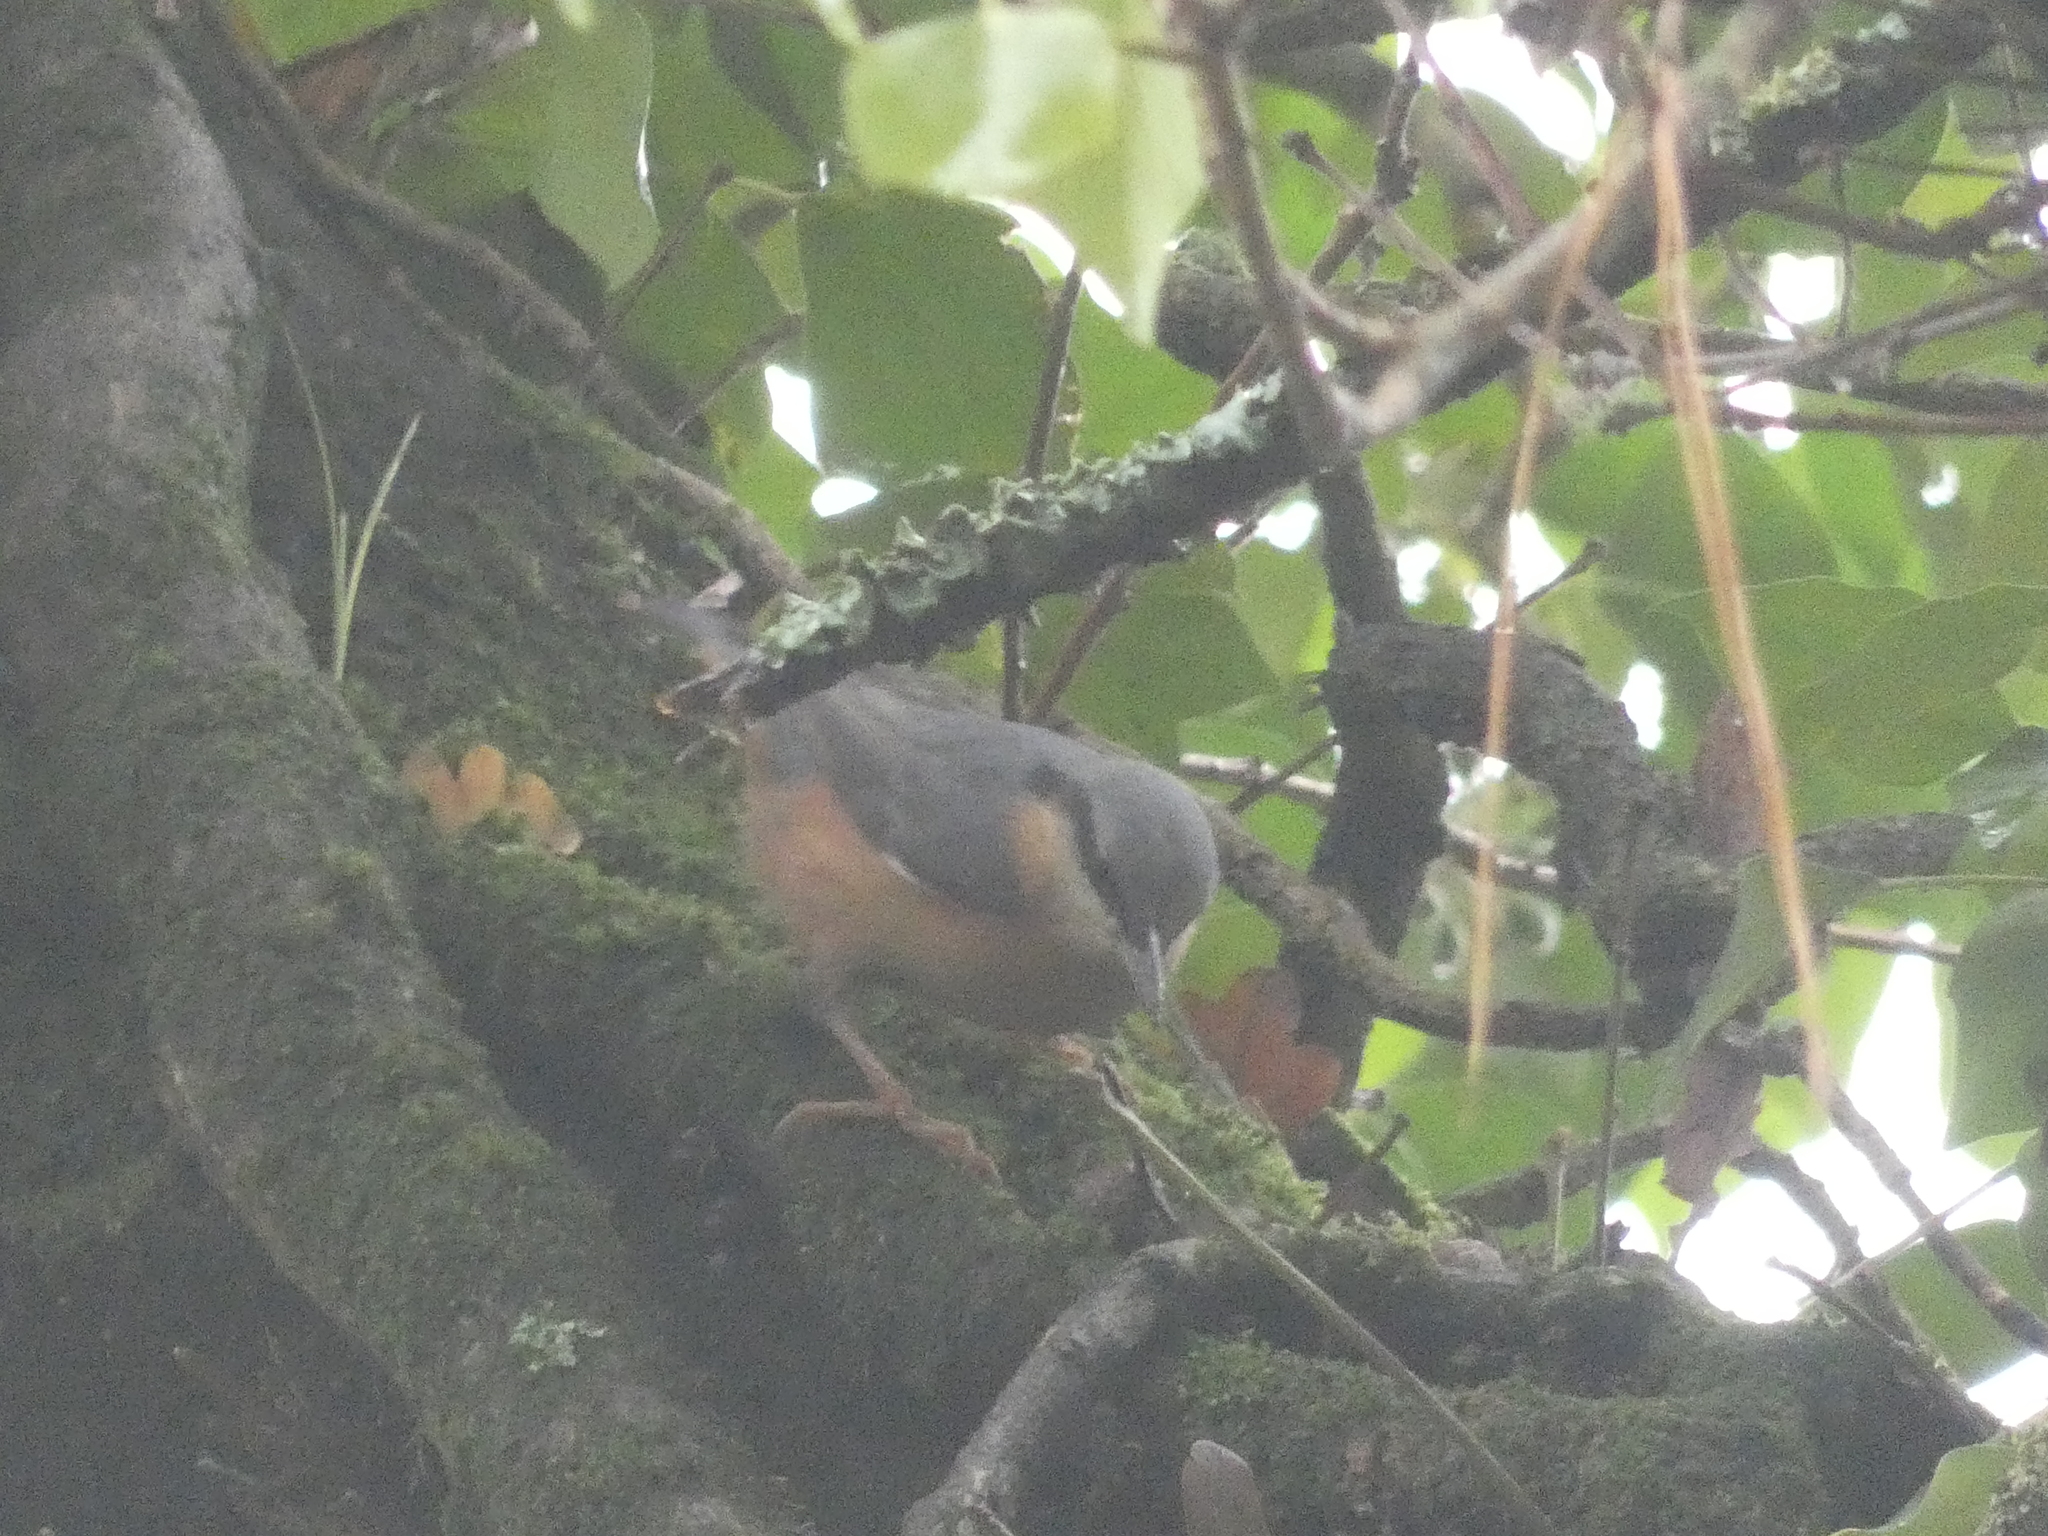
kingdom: Animalia
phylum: Chordata
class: Aves
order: Passeriformes
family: Sittidae
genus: Sitta
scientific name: Sitta europaea
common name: Eurasian nuthatch
